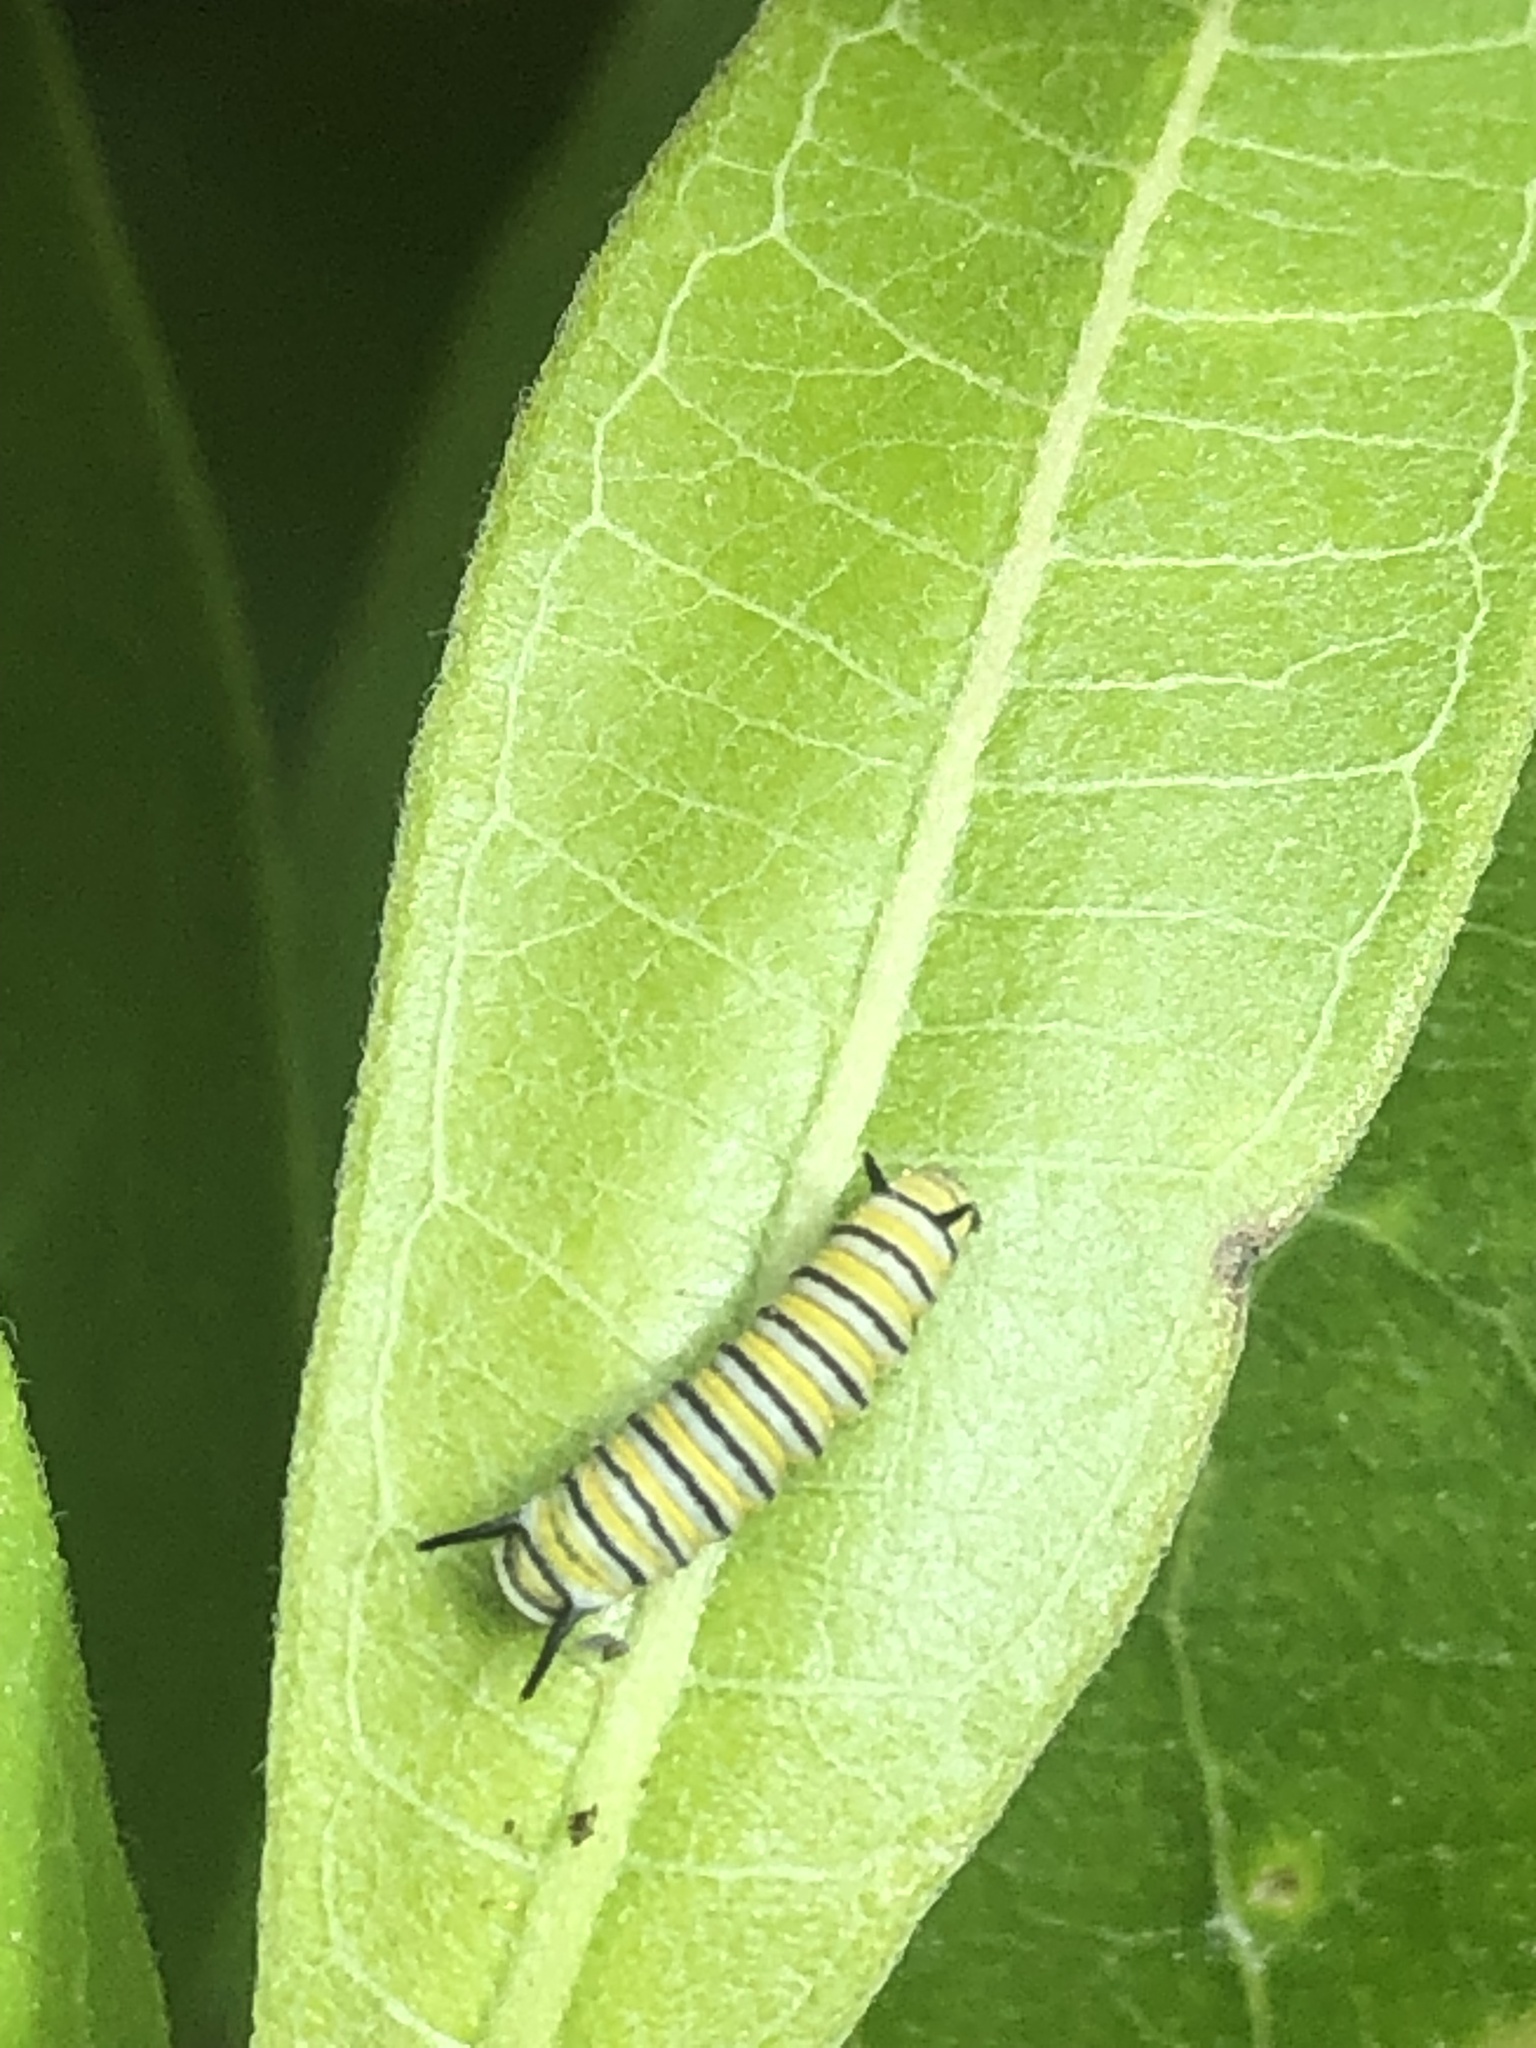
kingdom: Animalia
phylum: Arthropoda
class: Insecta
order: Lepidoptera
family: Nymphalidae
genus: Danaus
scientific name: Danaus plexippus
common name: Monarch
